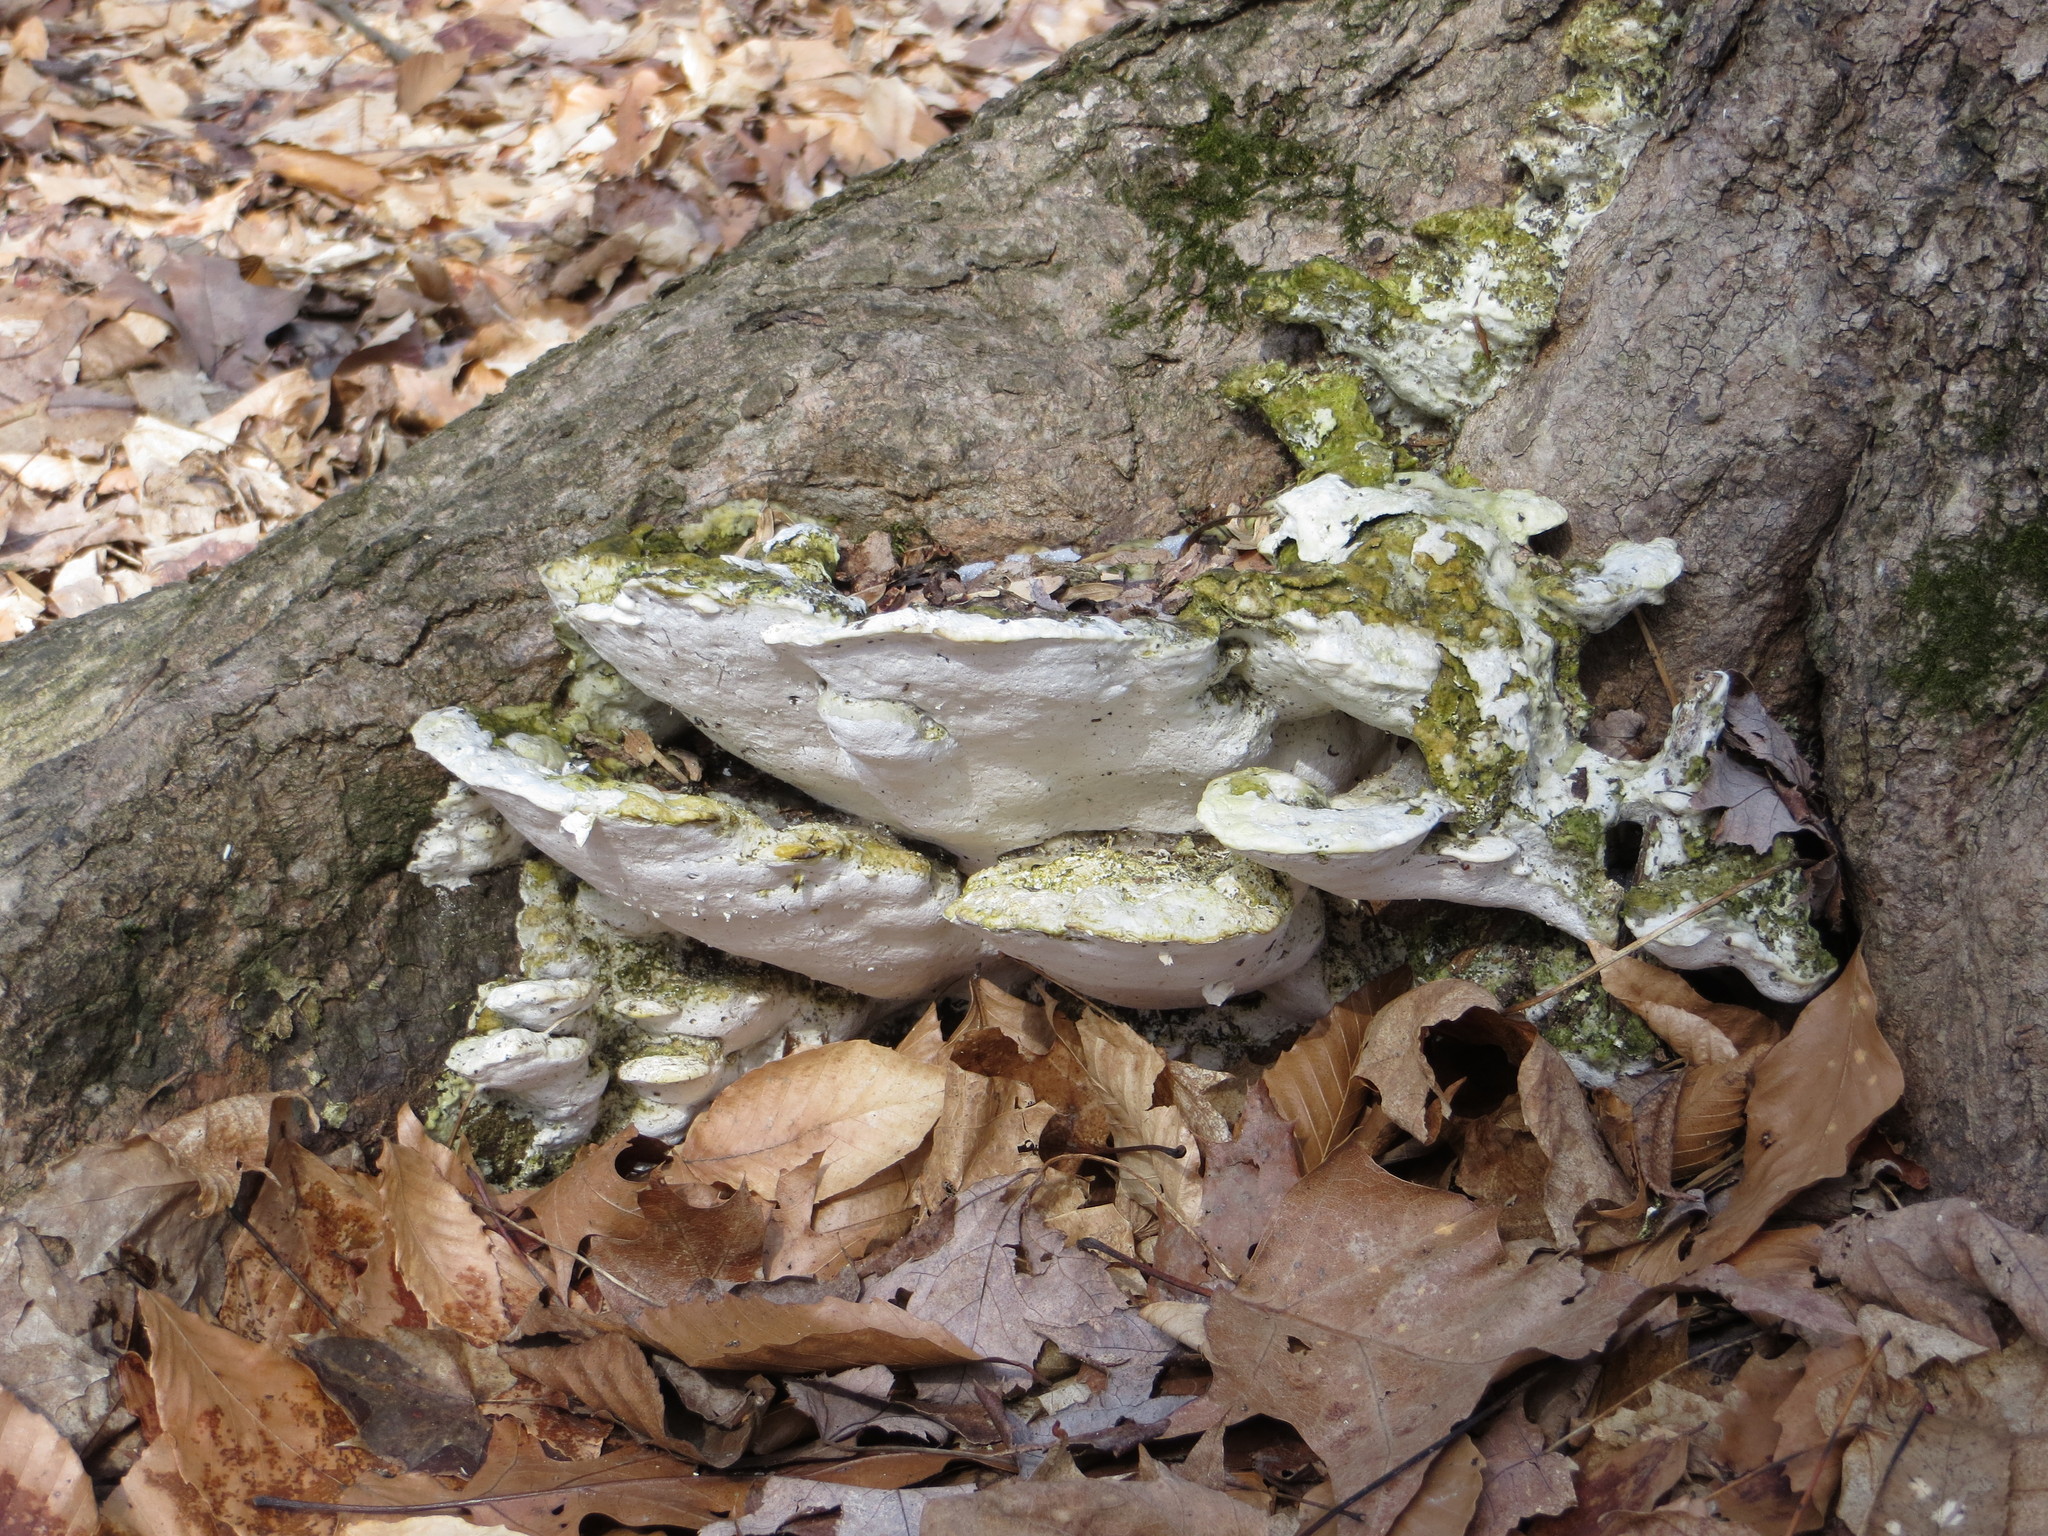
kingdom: Fungi
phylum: Basidiomycota
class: Agaricomycetes
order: Hymenochaetales
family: Oxyporaceae
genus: Oxyporus
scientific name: Oxyporus populinus
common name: Poplar bracket
